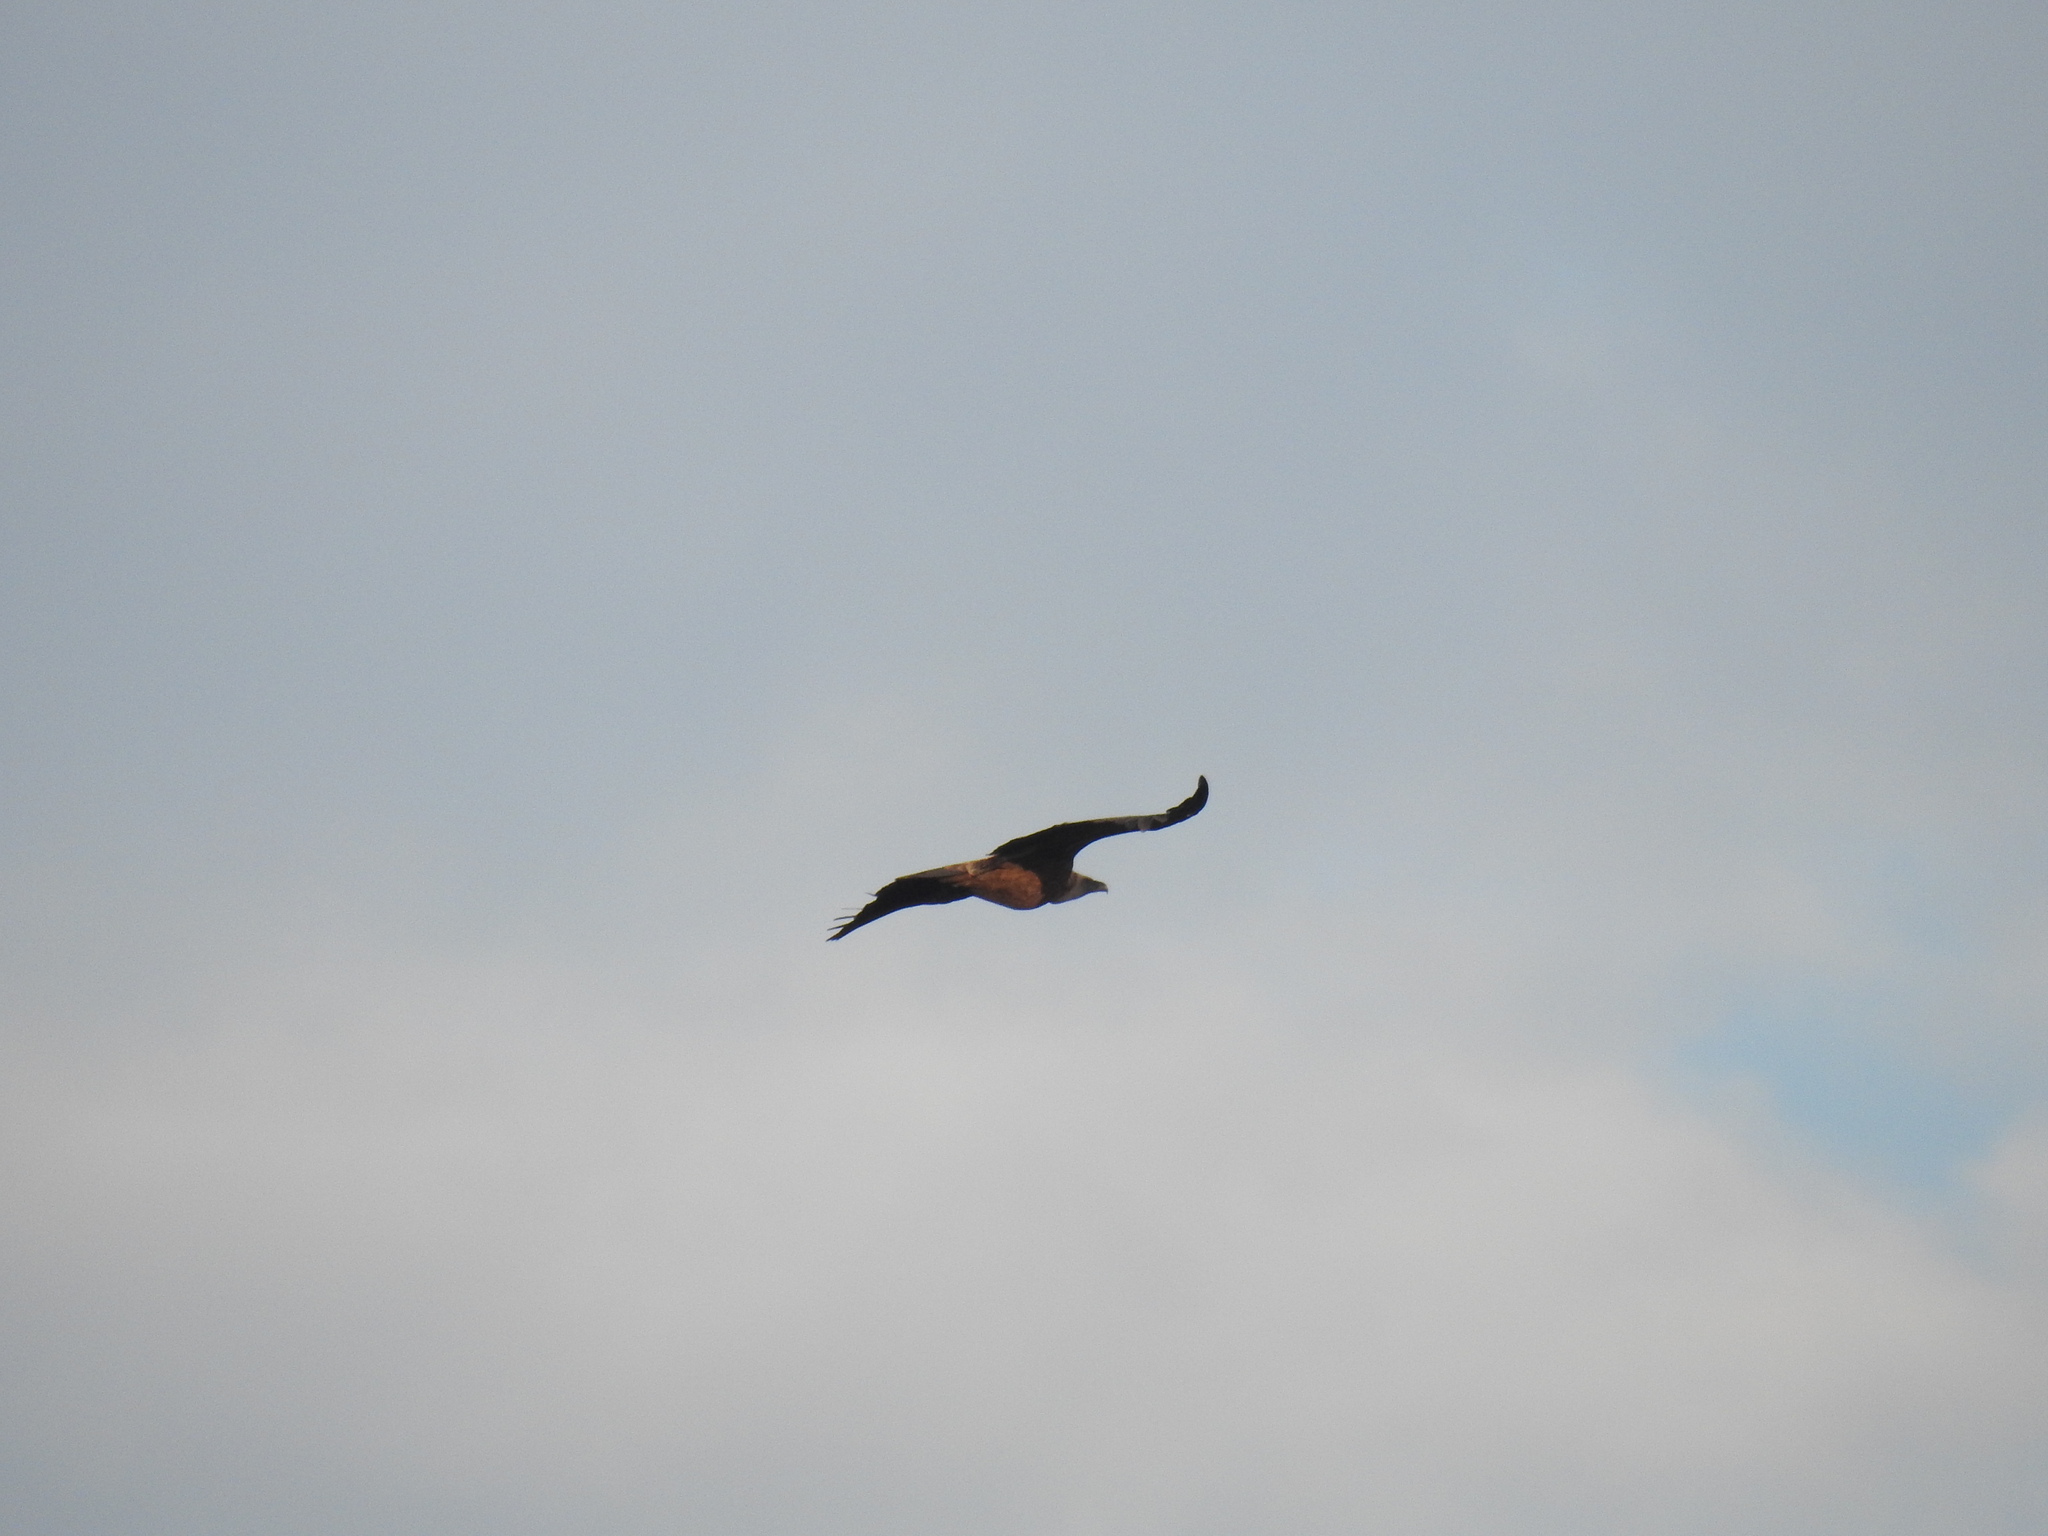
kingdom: Animalia
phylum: Chordata
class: Aves
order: Accipitriformes
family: Accipitridae
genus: Gyps
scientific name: Gyps fulvus
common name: Griffon vulture
